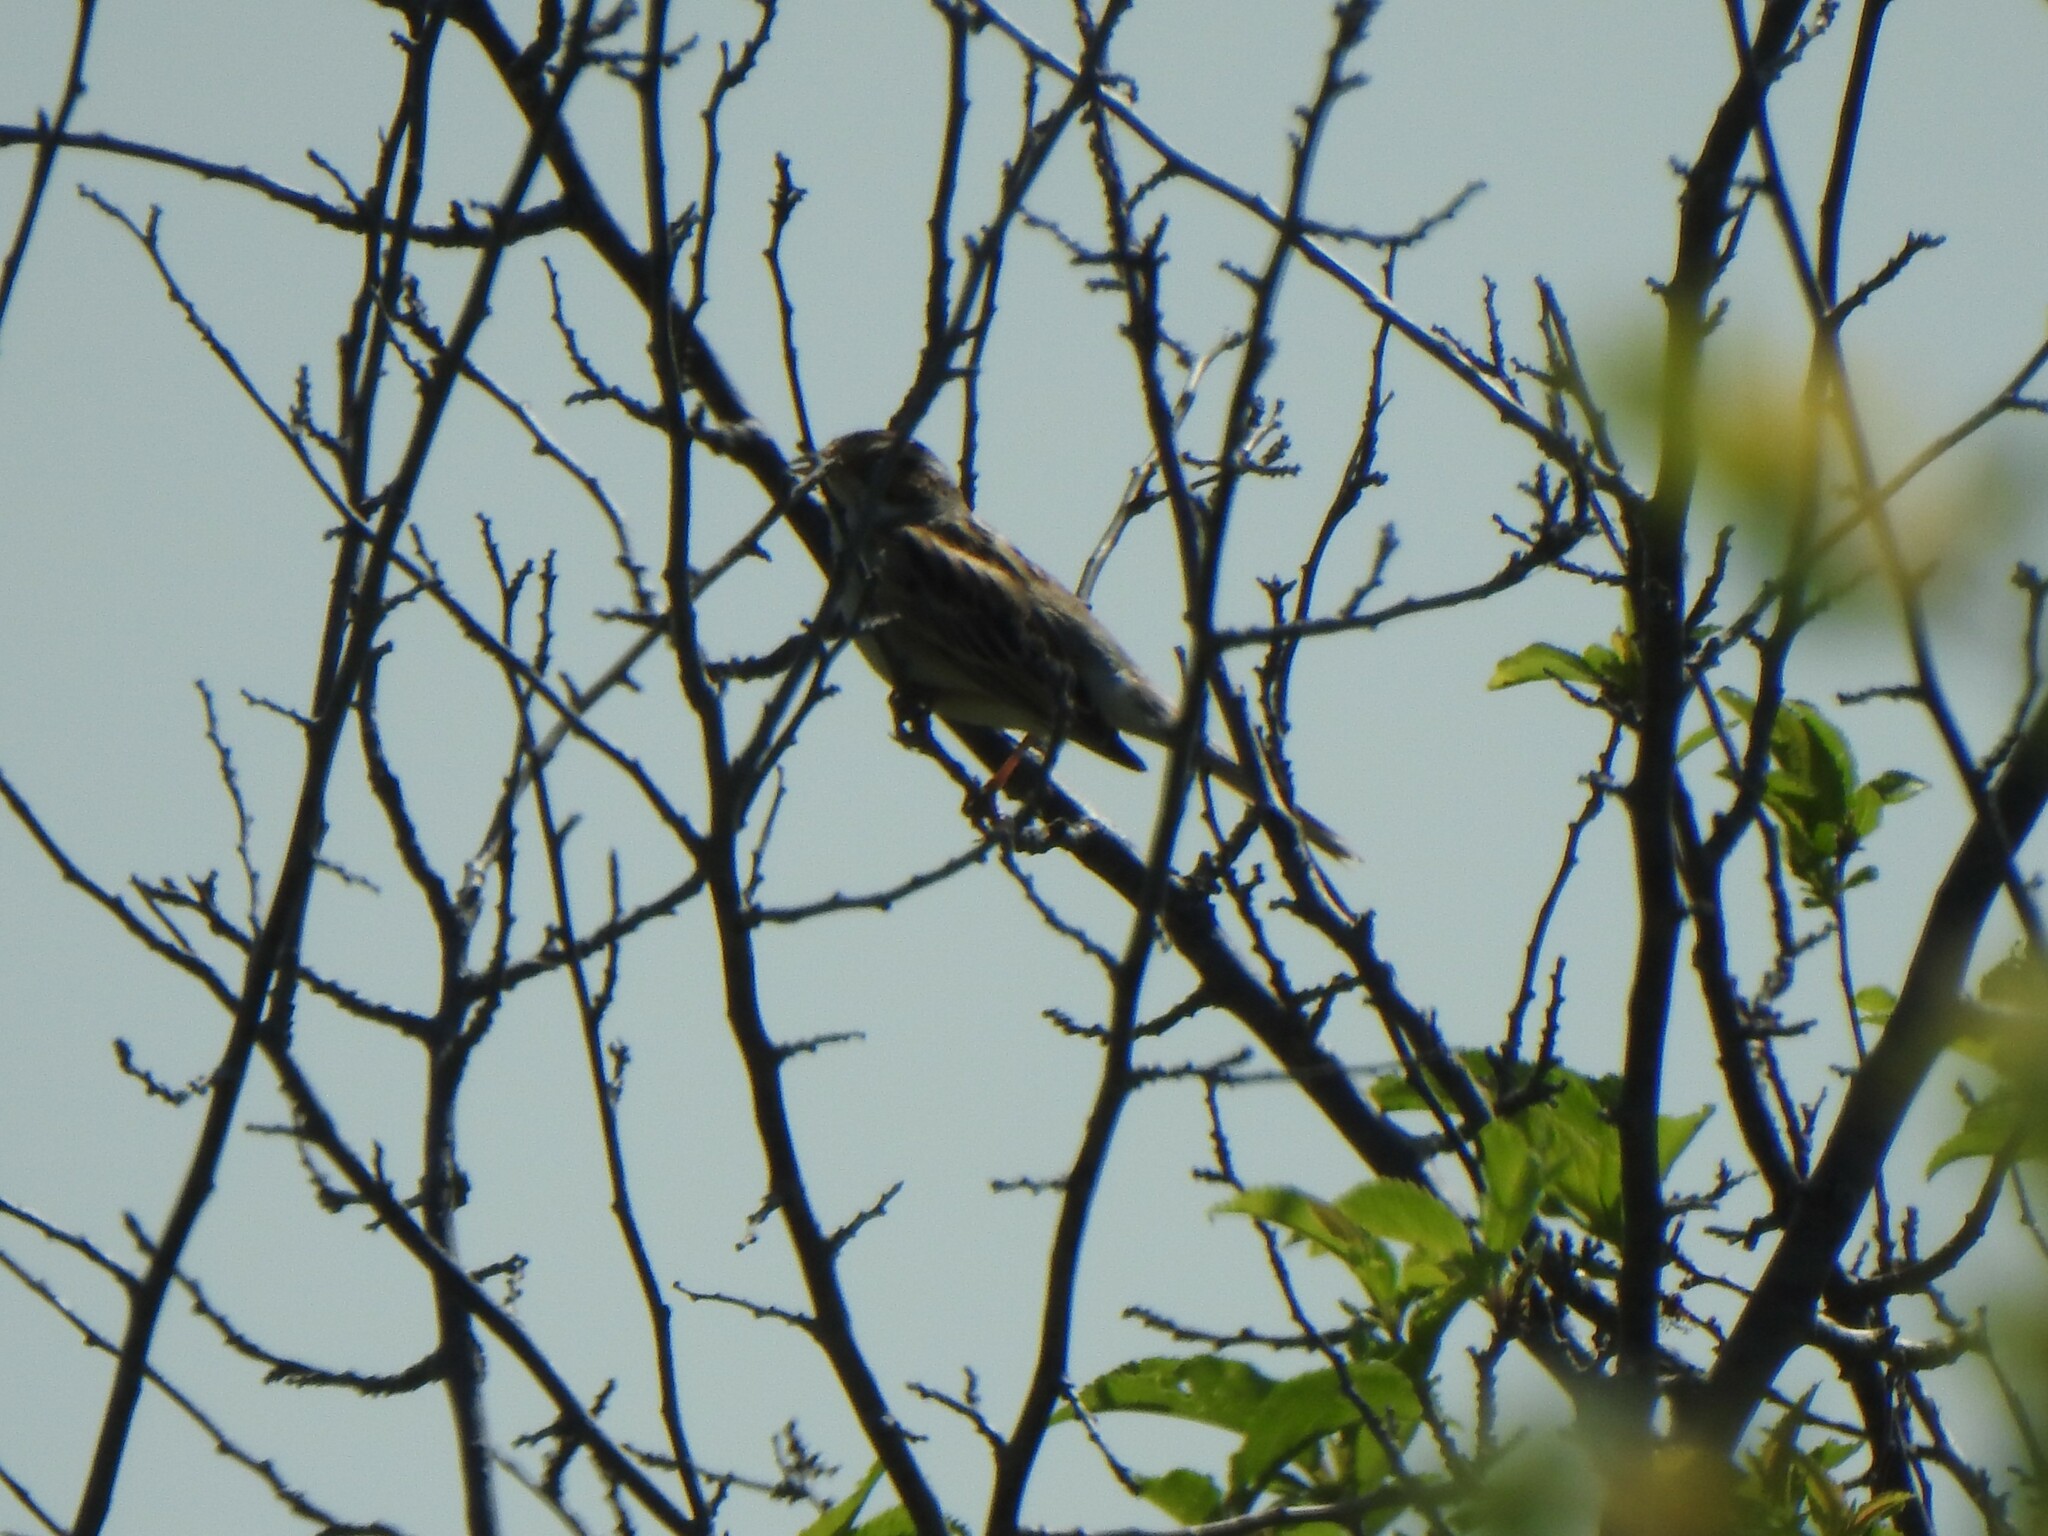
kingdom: Animalia
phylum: Chordata
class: Aves
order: Passeriformes
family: Passerellidae
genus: Chondestes
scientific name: Chondestes grammacus
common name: Lark sparrow
